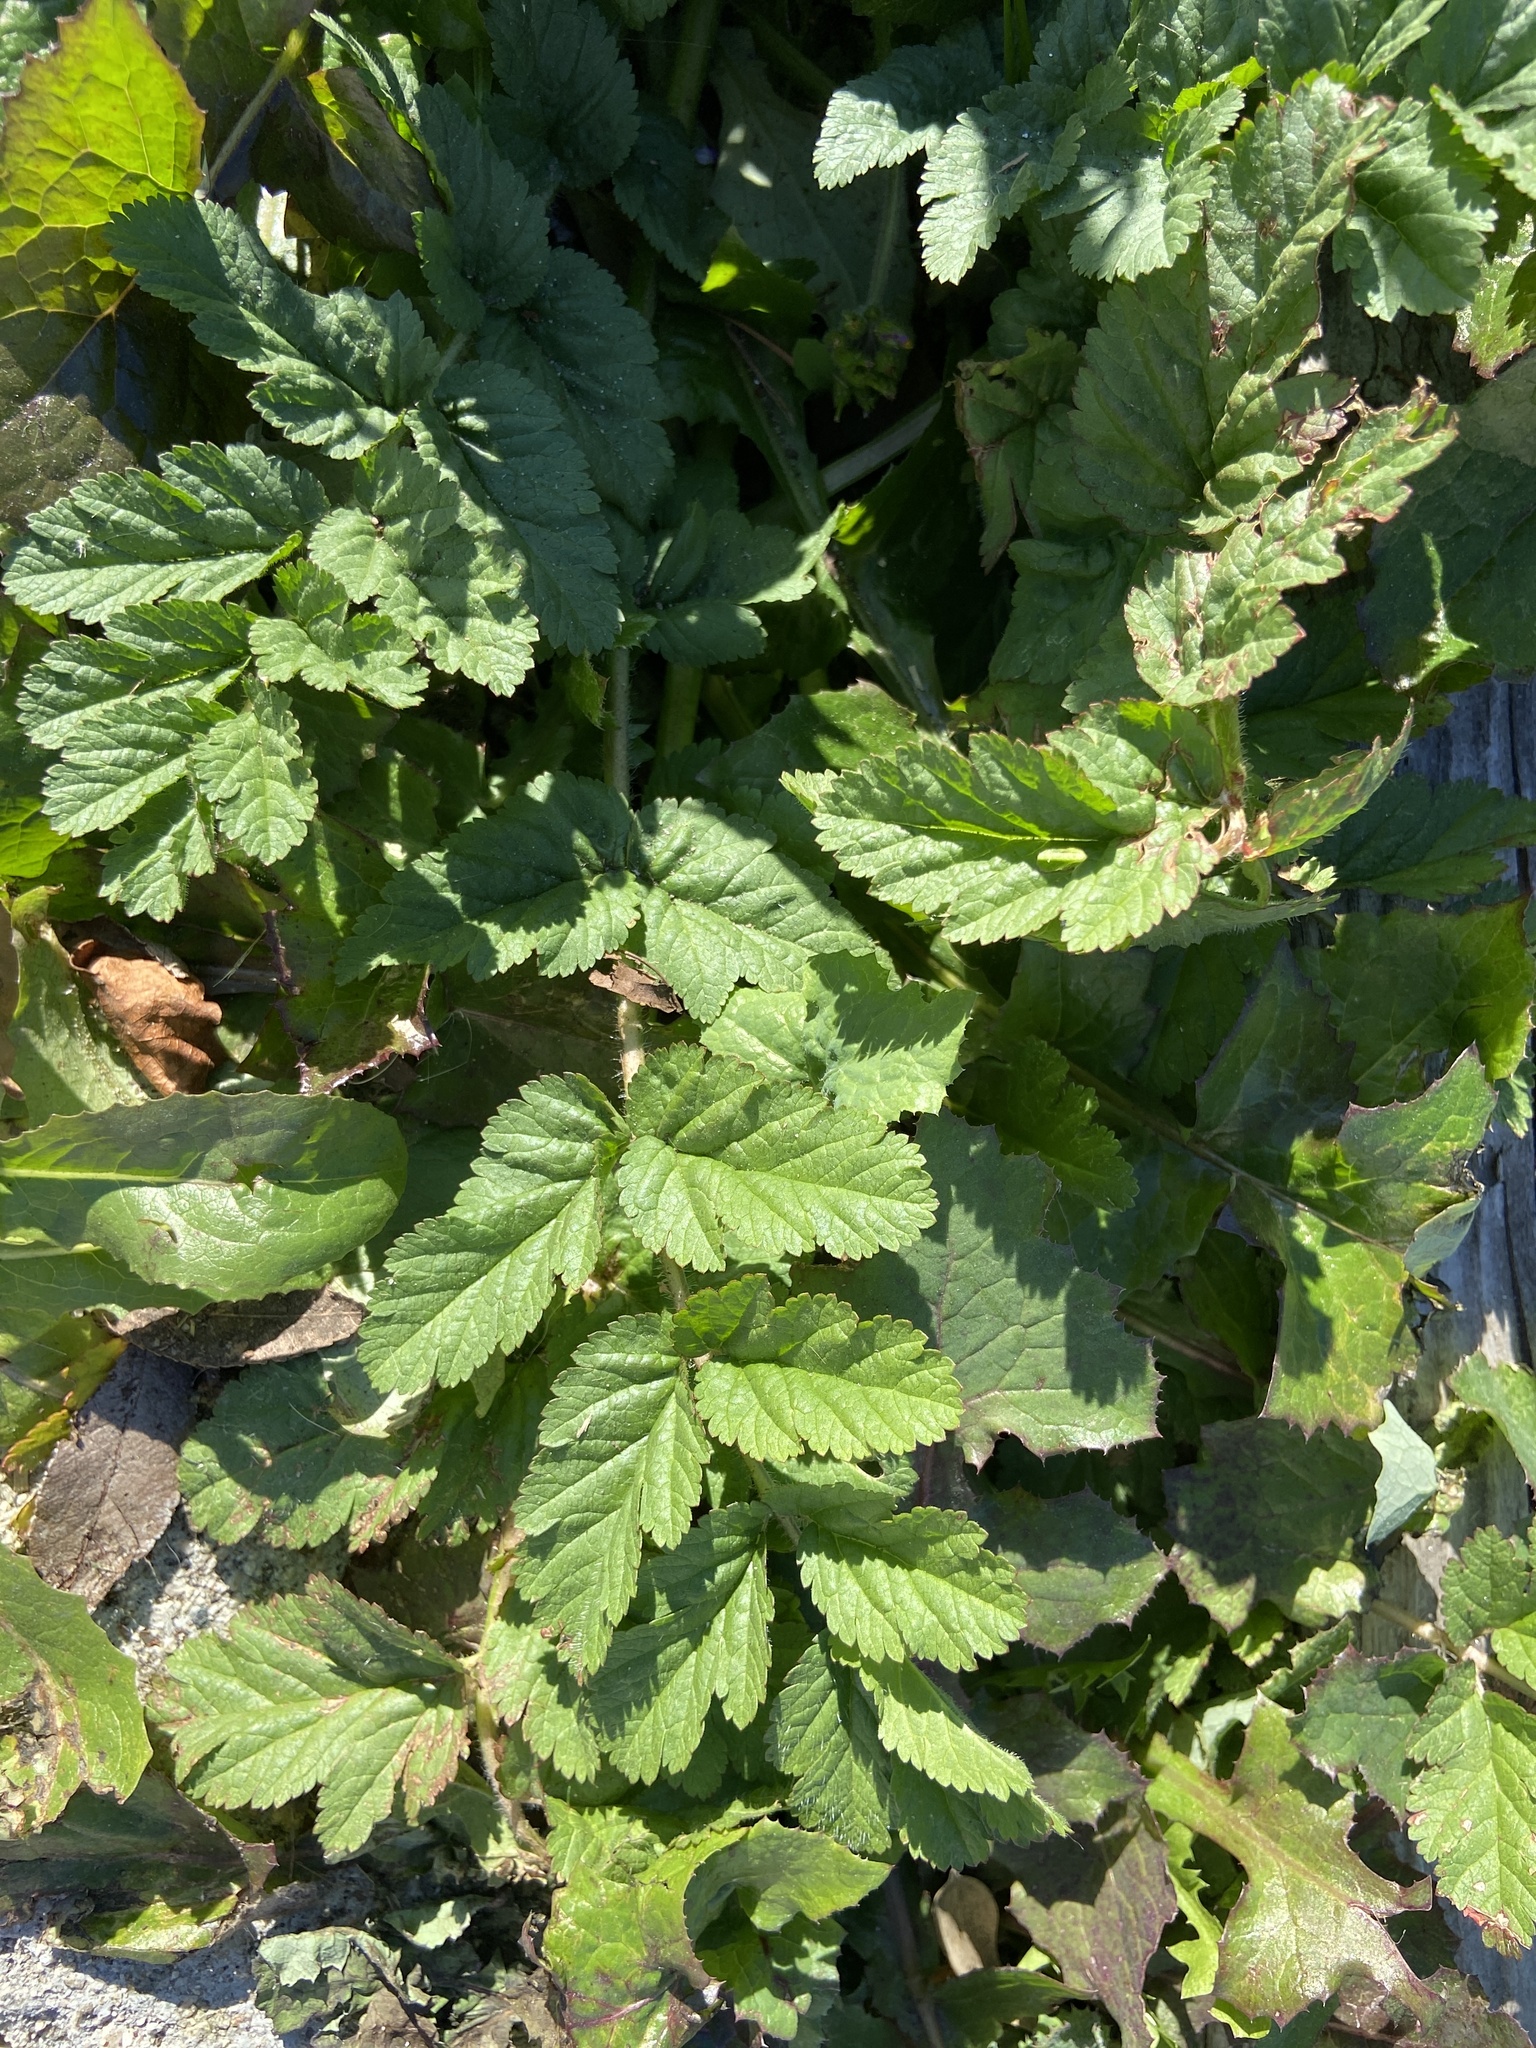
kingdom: Plantae
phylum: Tracheophyta
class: Magnoliopsida
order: Geraniales
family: Geraniaceae
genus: Erodium
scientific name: Erodium moschatum
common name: Musk stork's-bill
